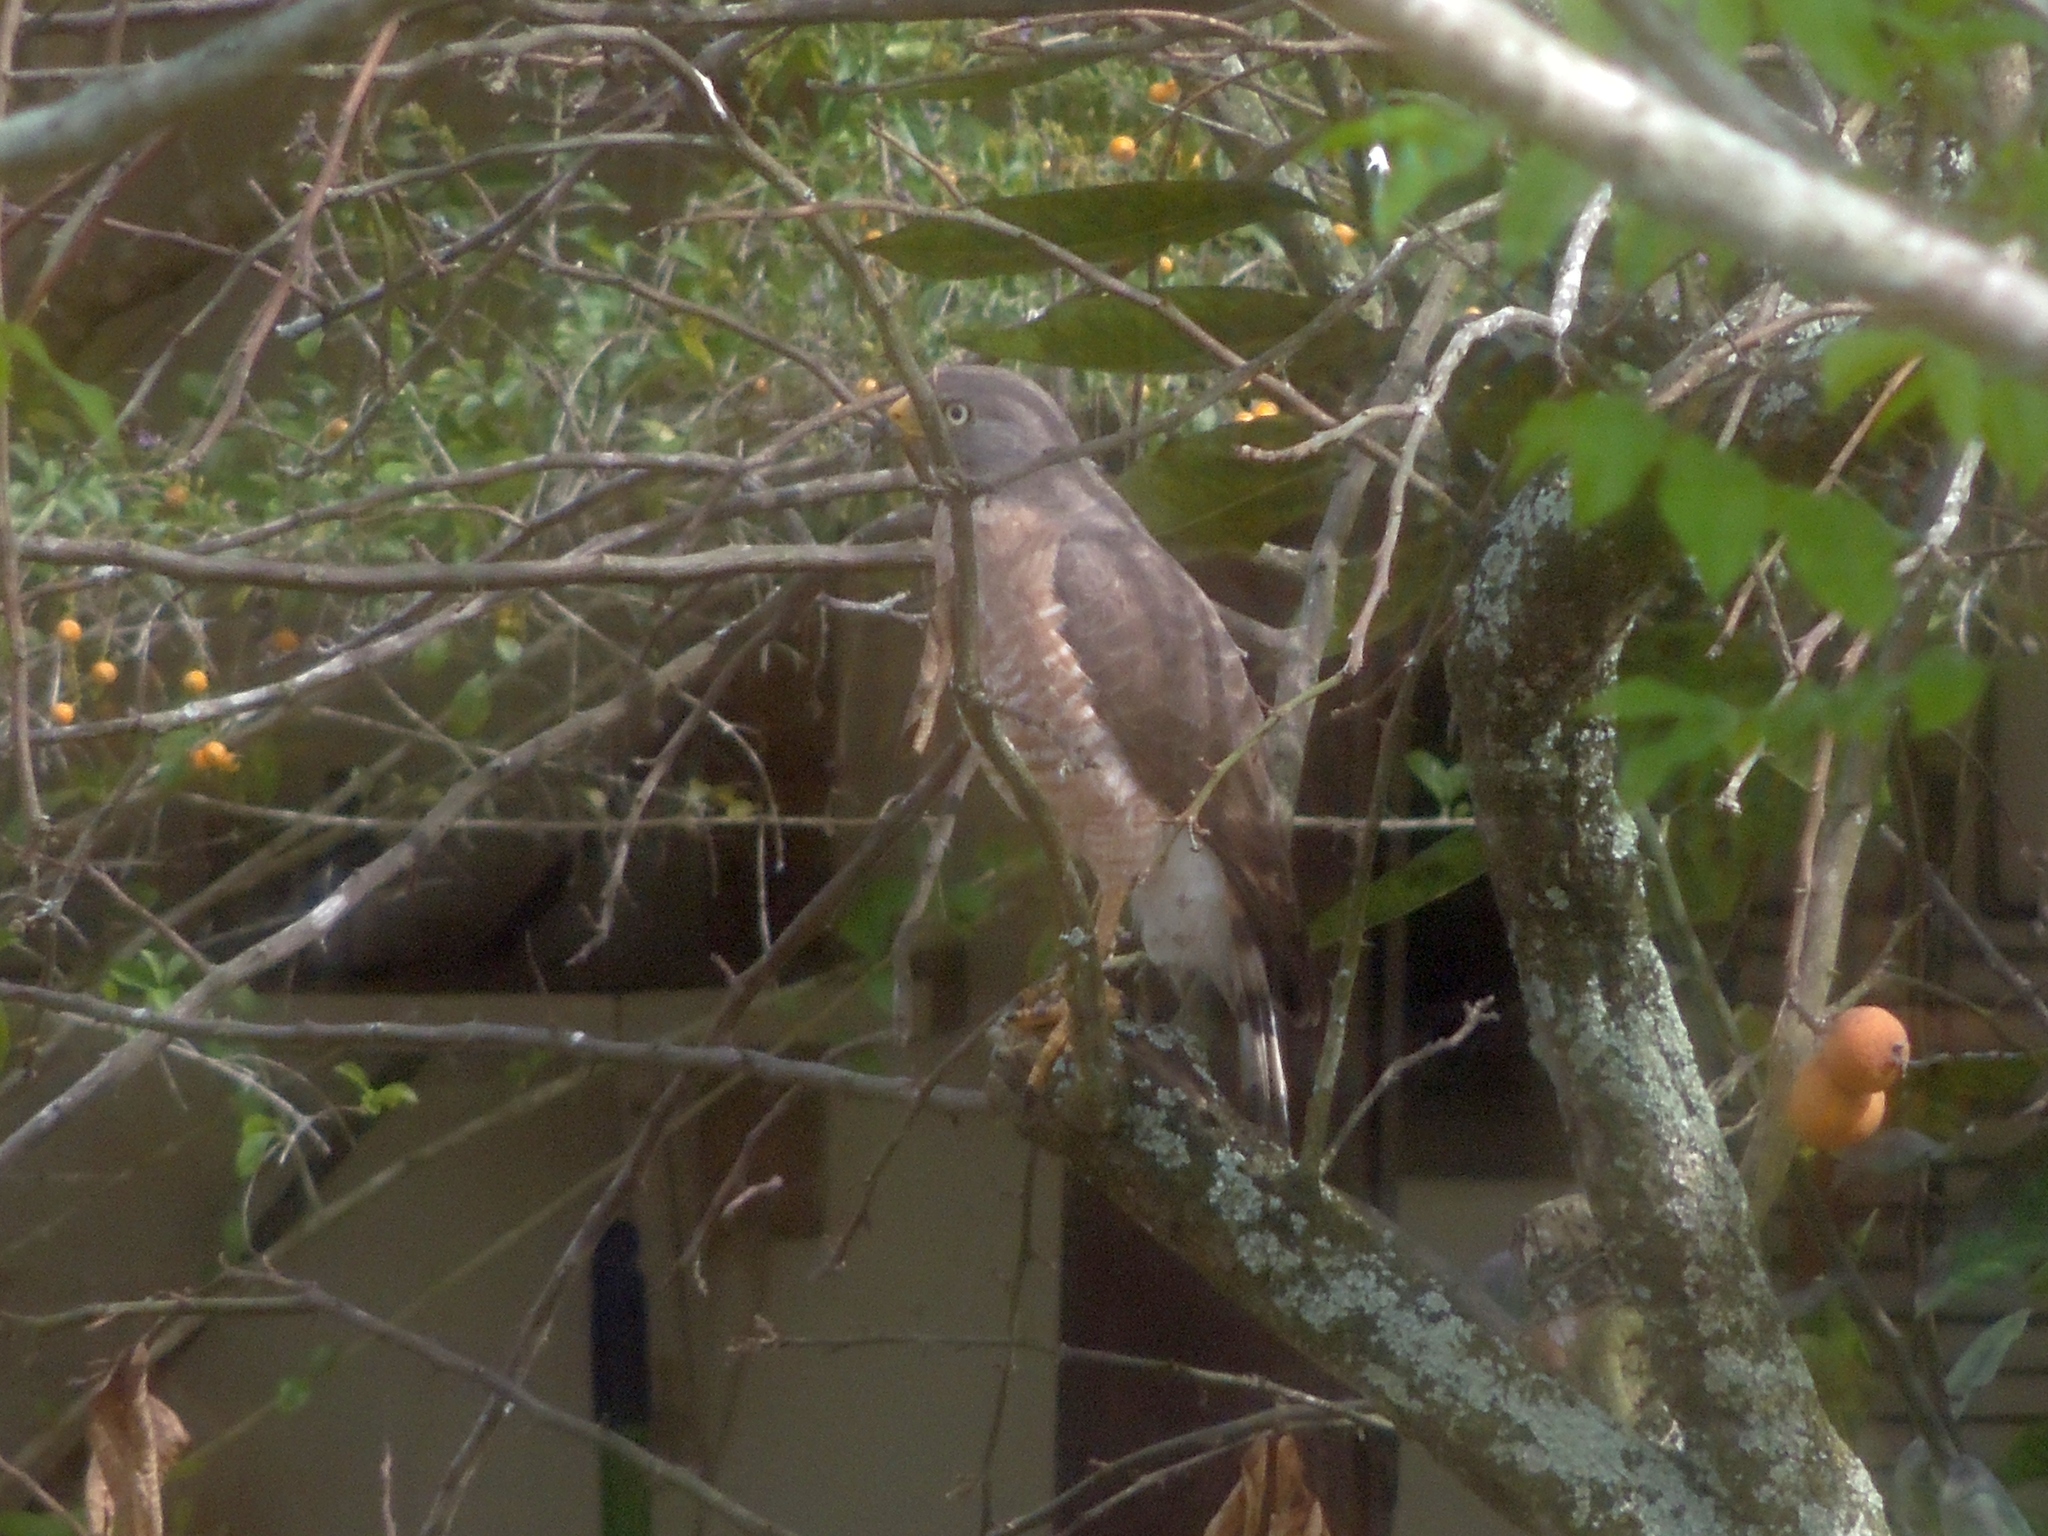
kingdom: Animalia
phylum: Chordata
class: Aves
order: Accipitriformes
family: Accipitridae
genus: Rupornis
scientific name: Rupornis magnirostris
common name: Roadside hawk
